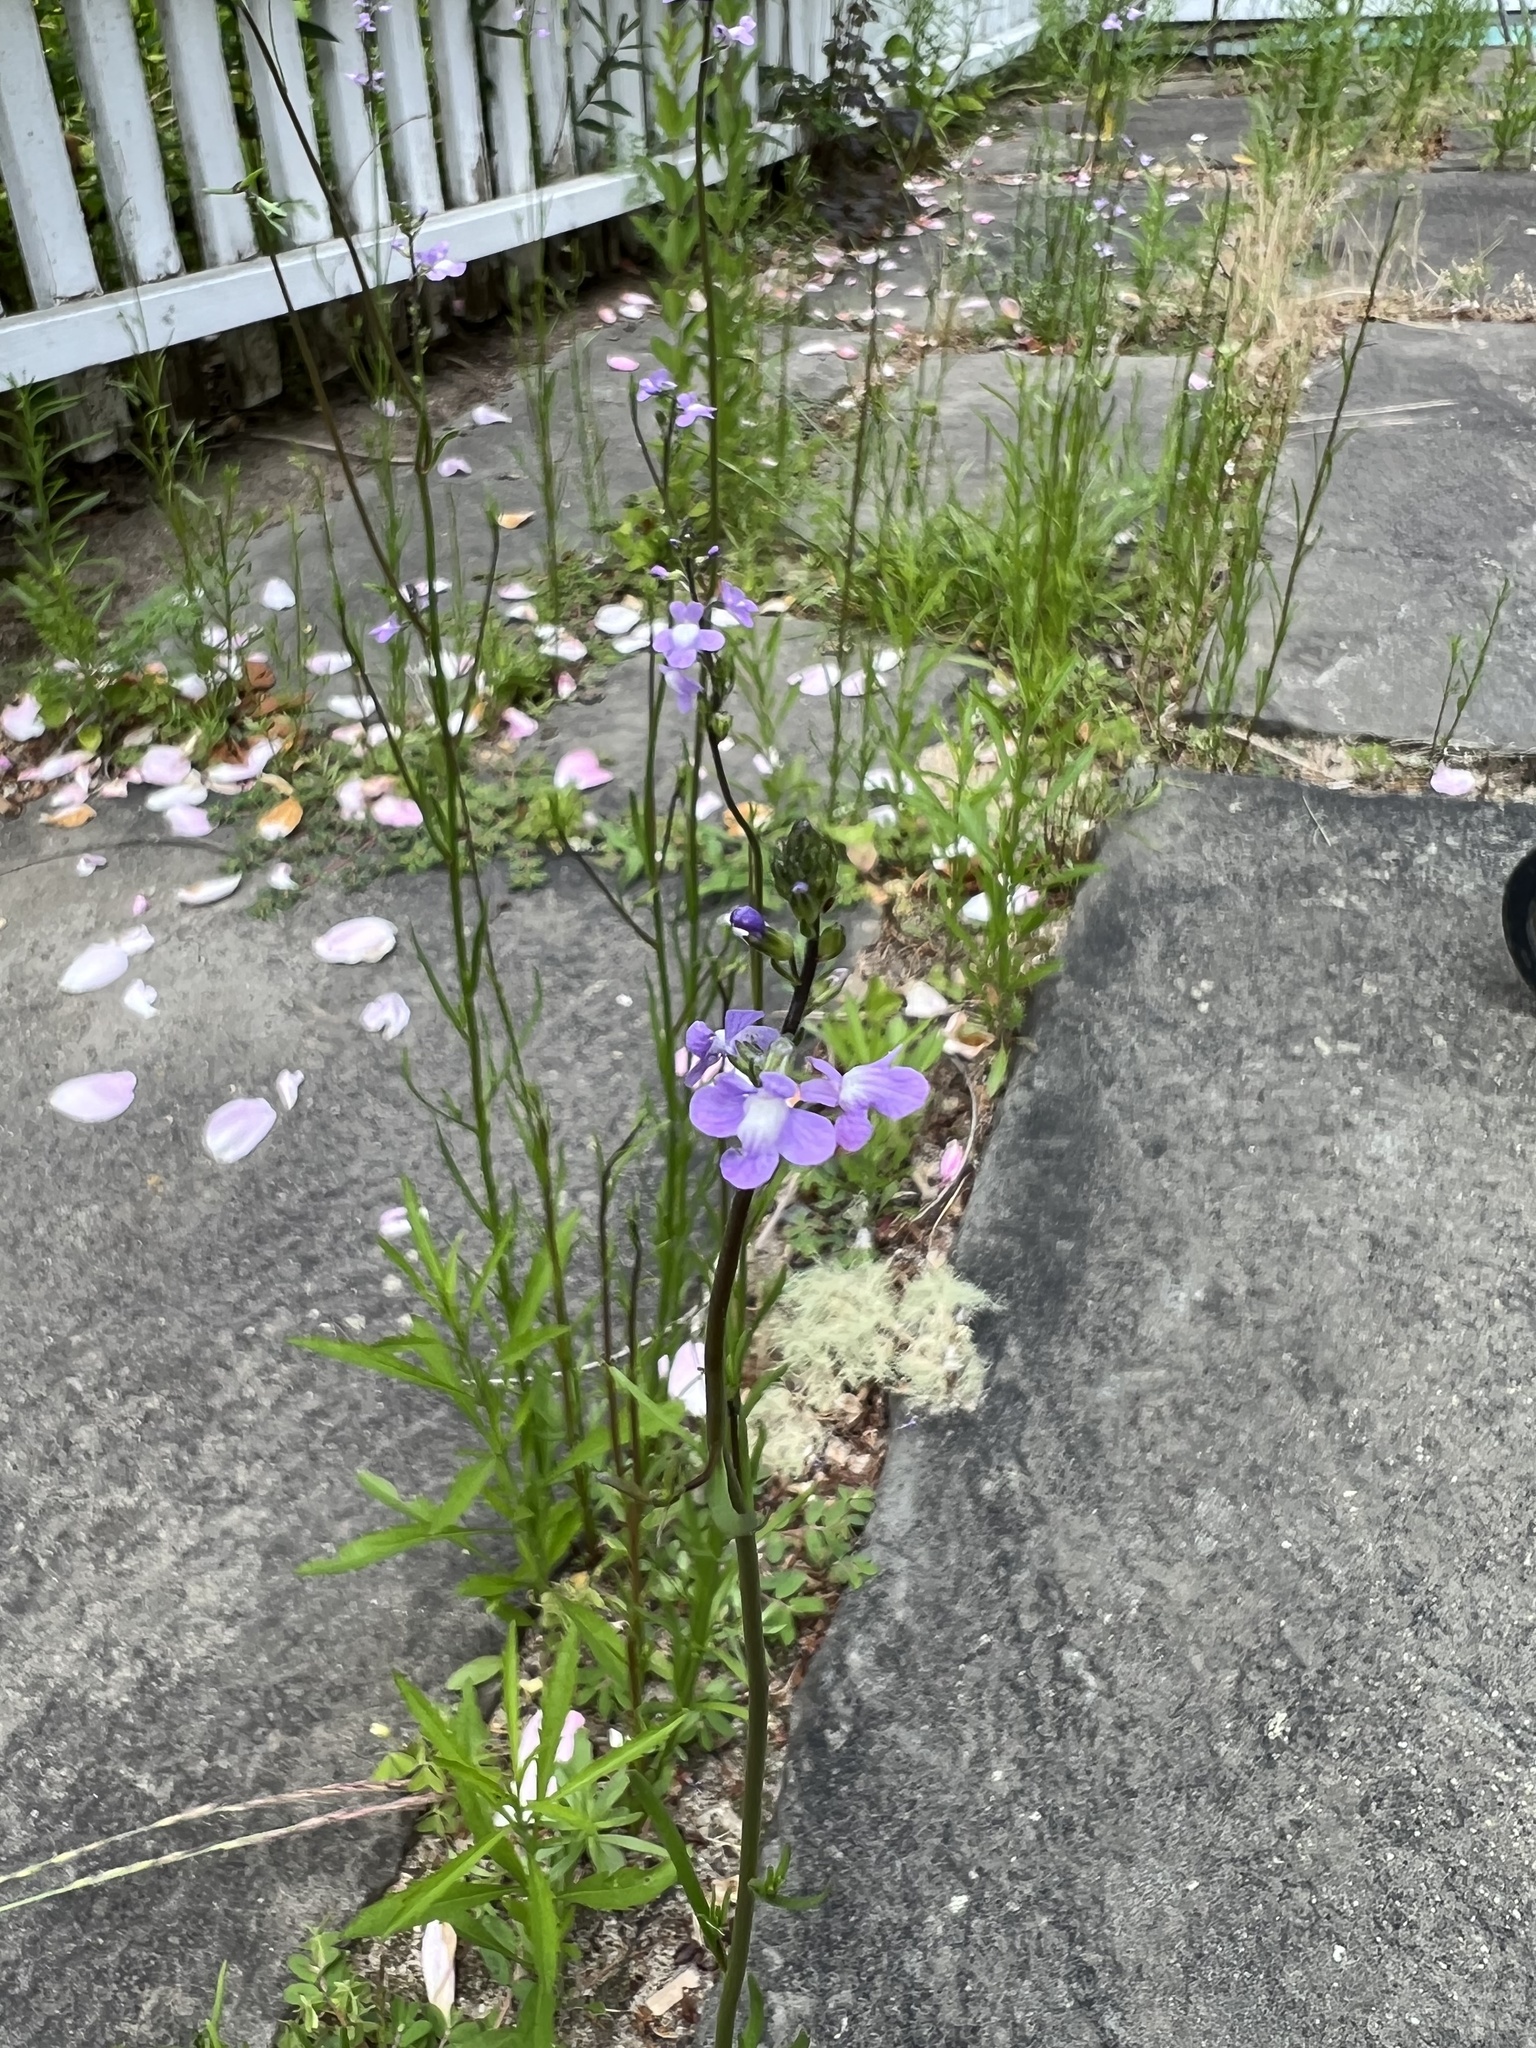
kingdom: Plantae
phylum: Tracheophyta
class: Magnoliopsida
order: Lamiales
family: Plantaginaceae
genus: Nuttallanthus
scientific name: Nuttallanthus canadensis
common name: Blue toadflax
